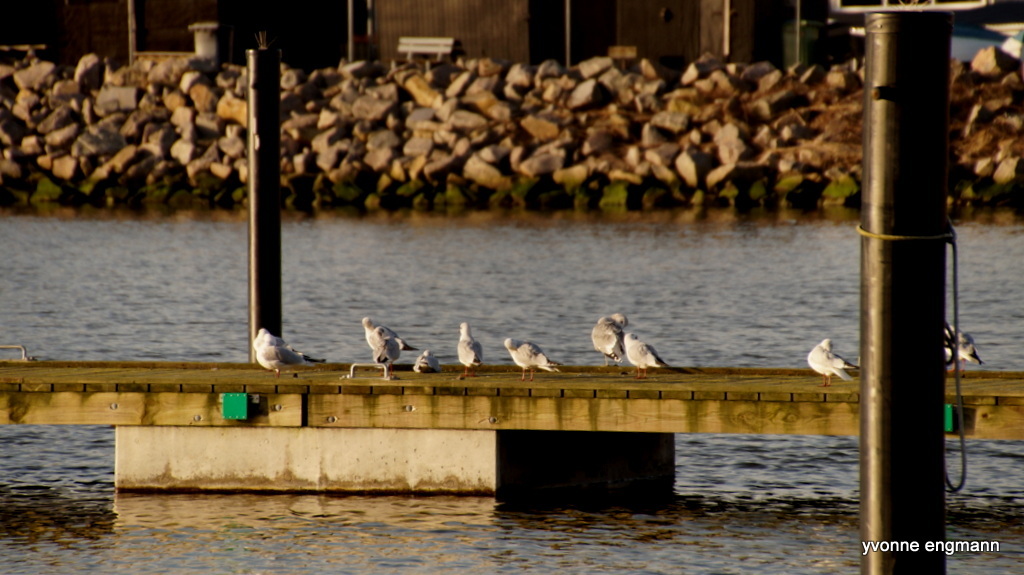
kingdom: Animalia
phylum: Chordata
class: Aves
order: Charadriiformes
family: Laridae
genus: Chroicocephalus
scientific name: Chroicocephalus ridibundus
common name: Black-headed gull
